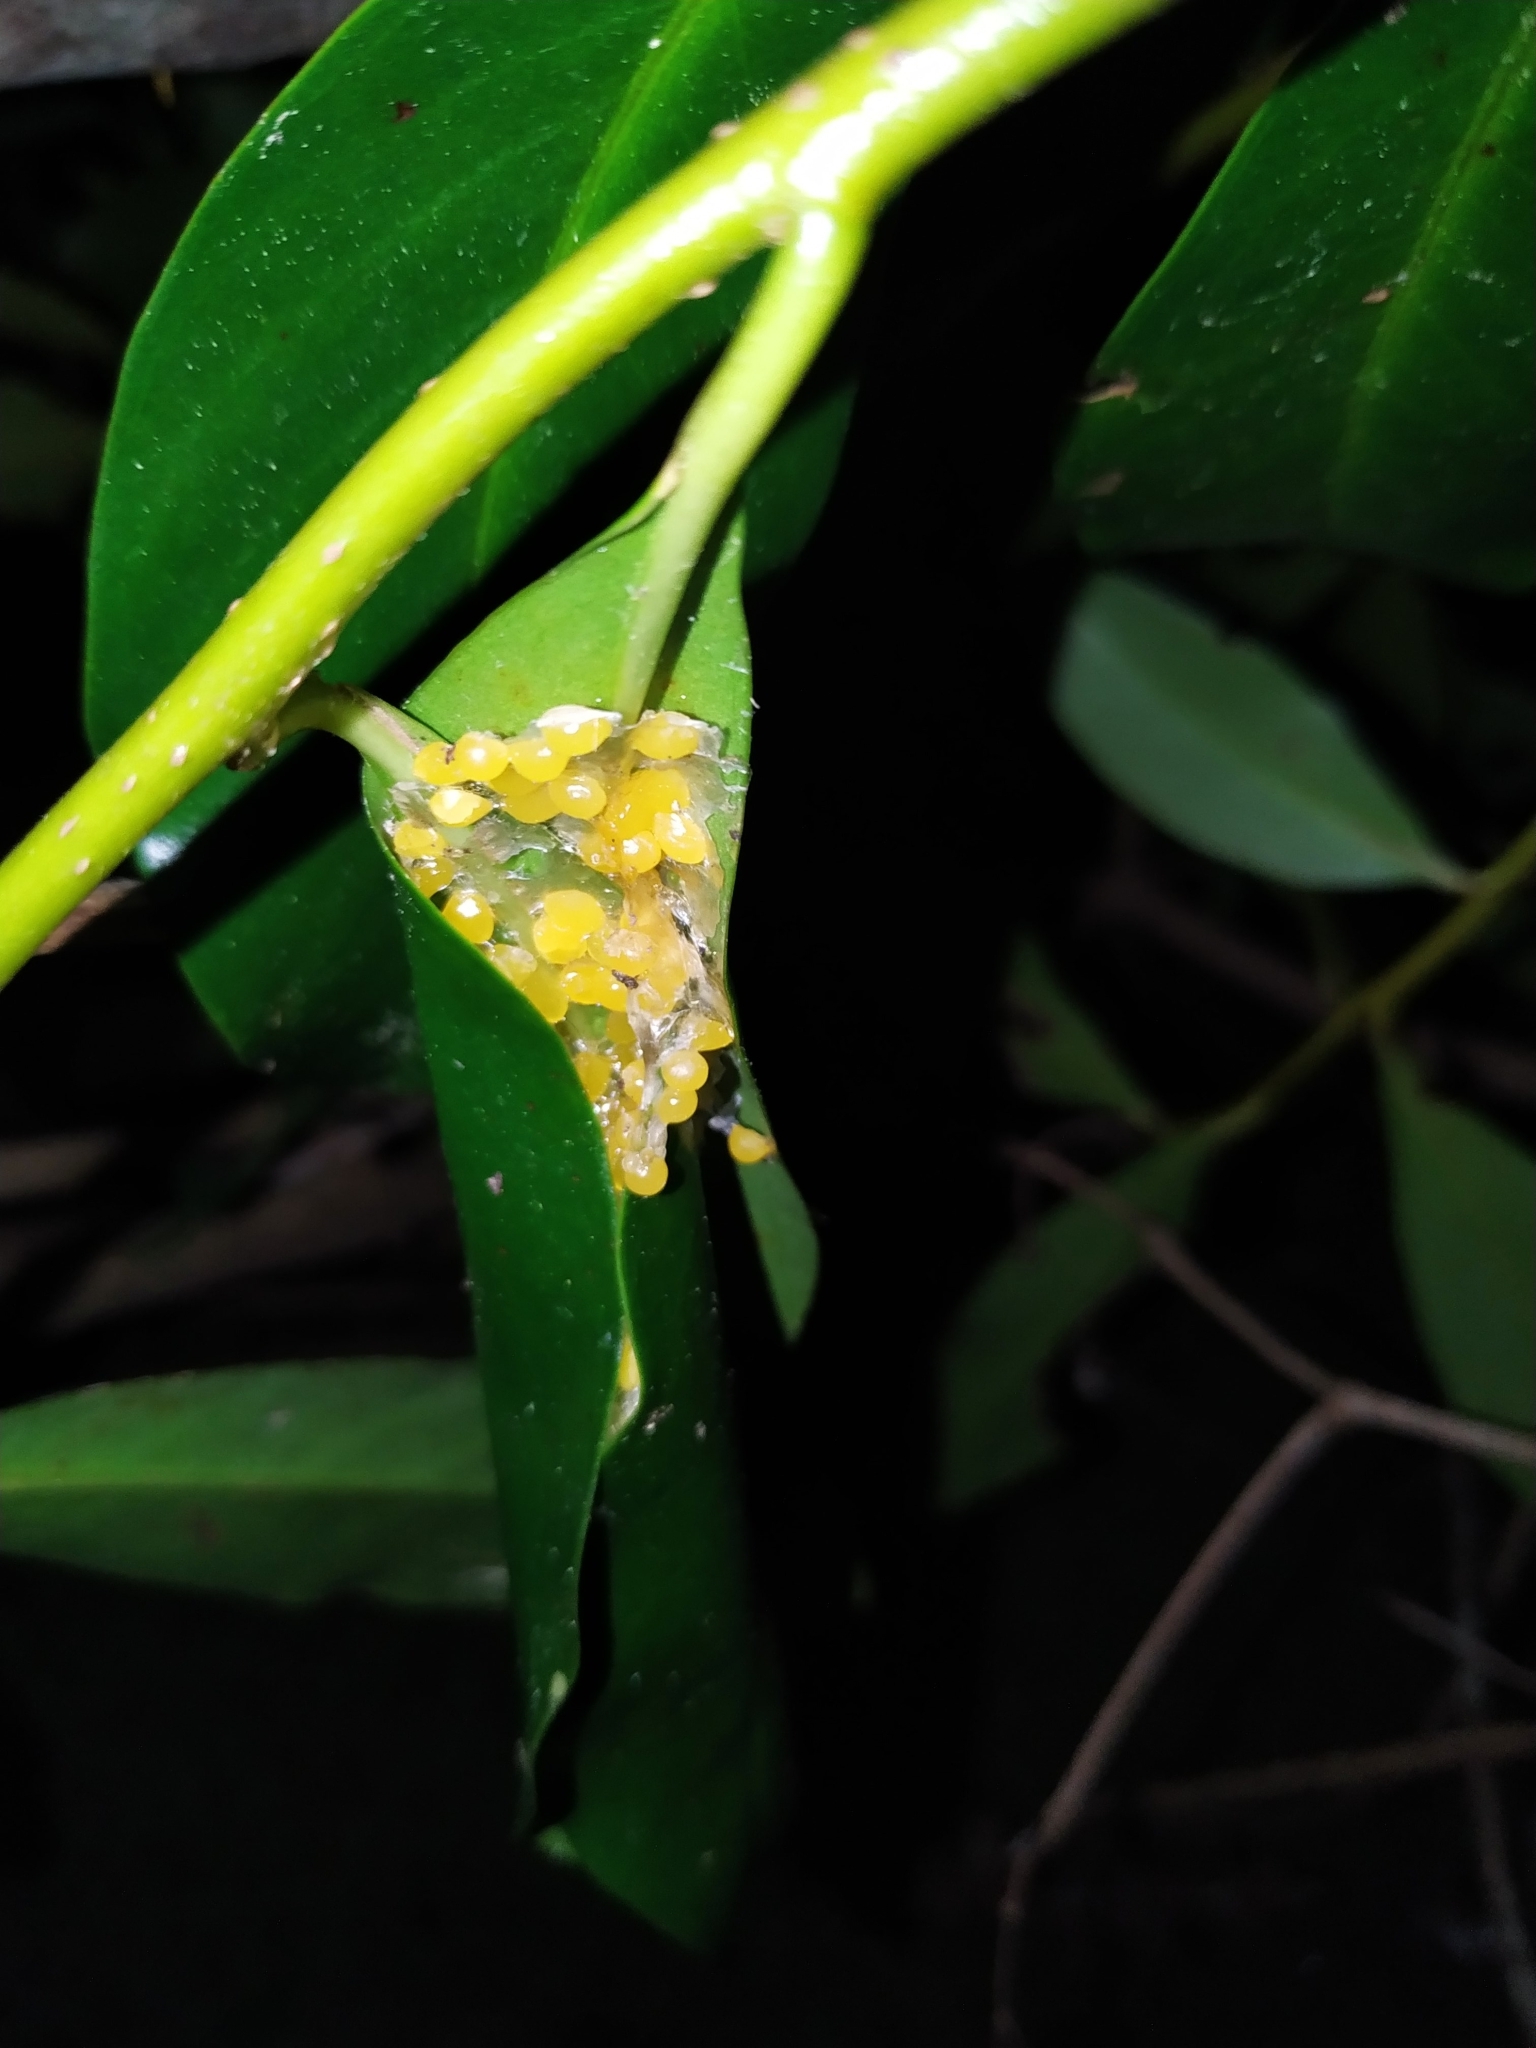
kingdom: Animalia
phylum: Chordata
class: Amphibia
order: Anura
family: Phyllomedusidae
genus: Phyllomedusa
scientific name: Phyllomedusa iheringii
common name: Southern walking leaf frog
